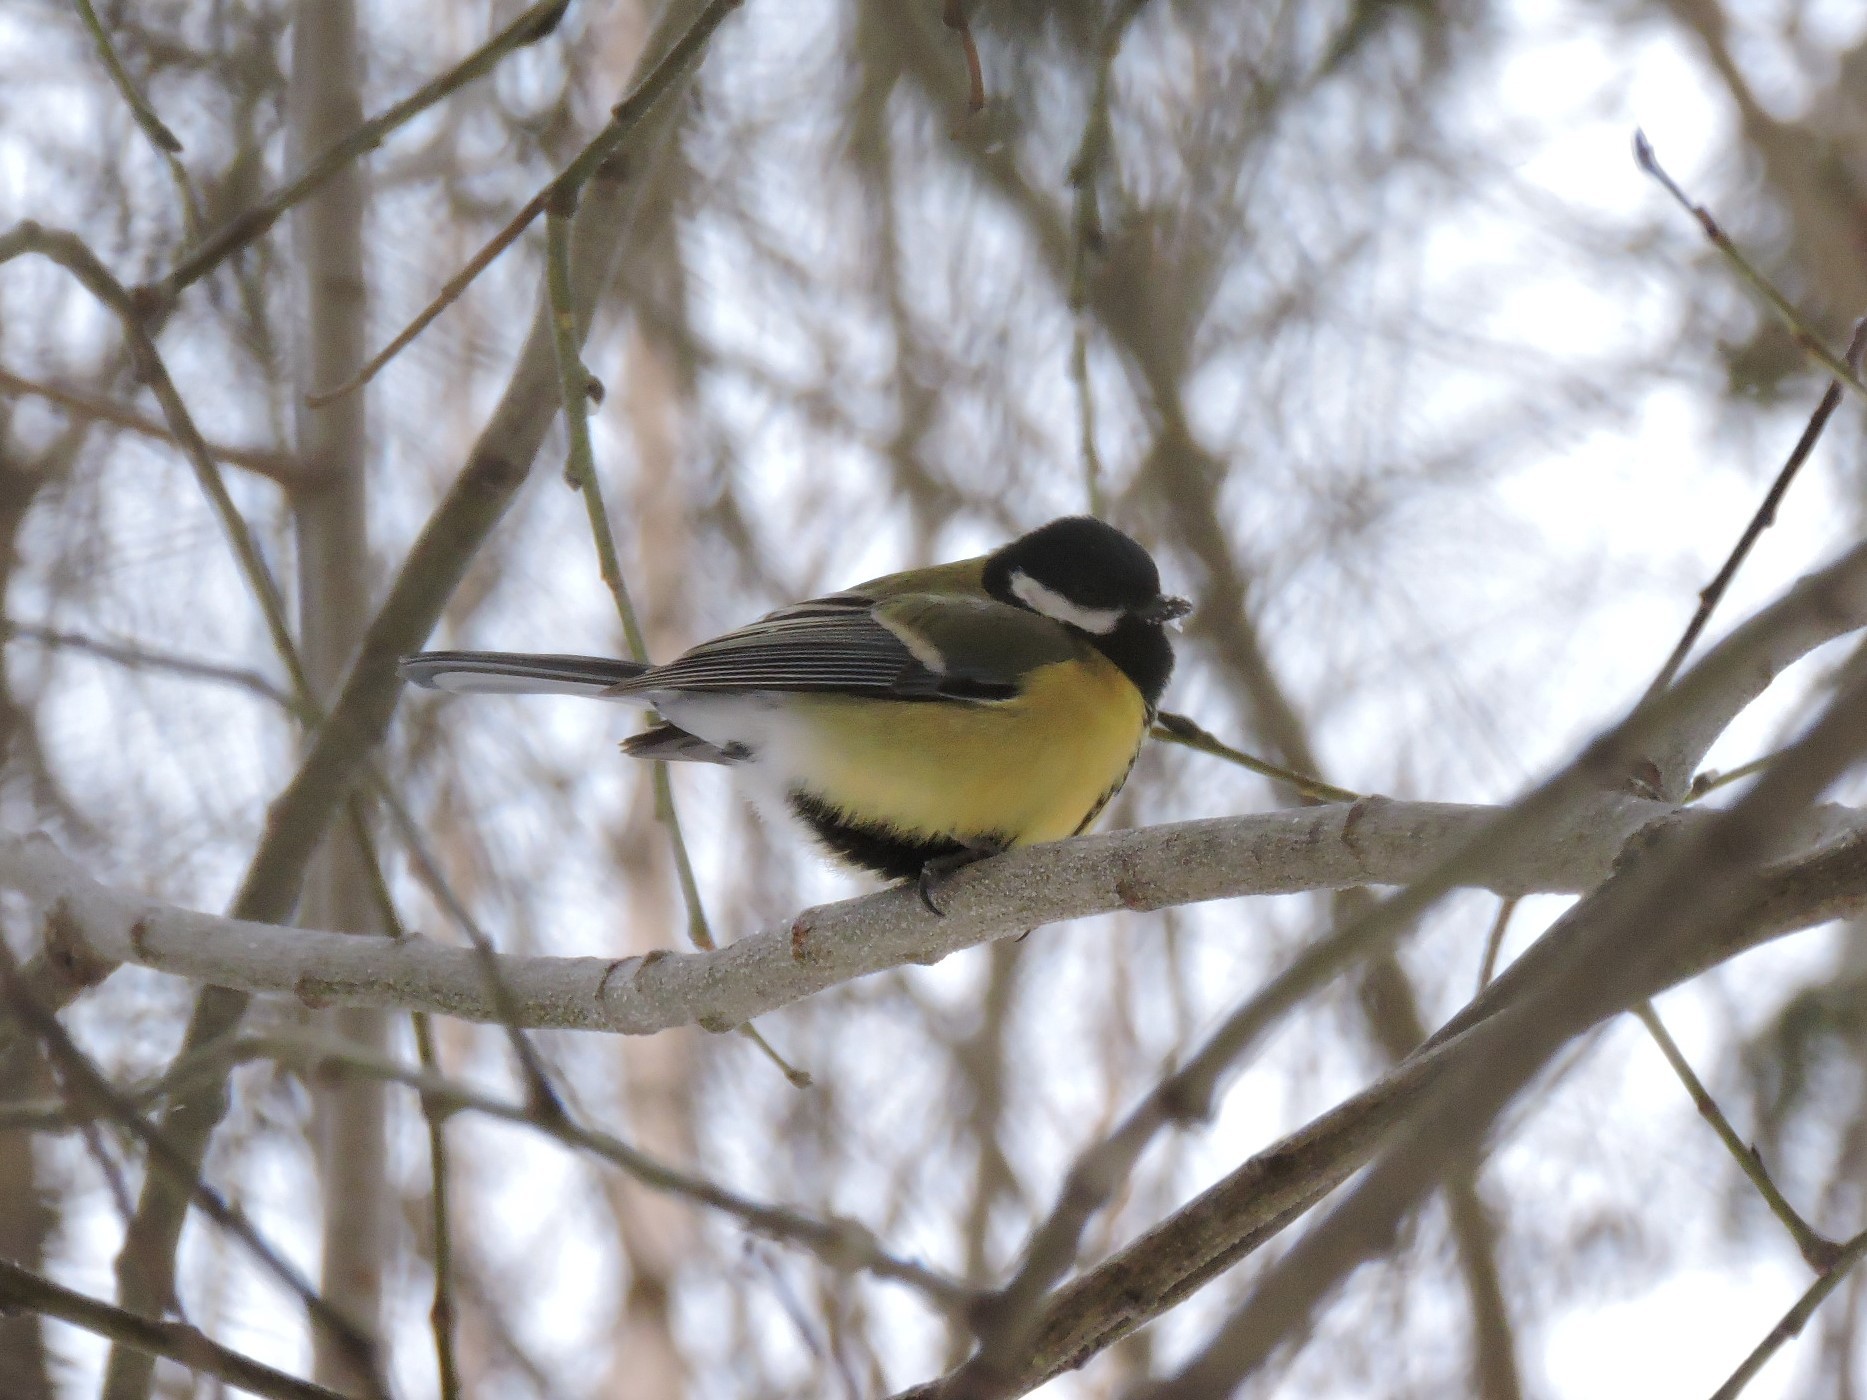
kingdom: Animalia
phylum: Chordata
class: Aves
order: Passeriformes
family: Paridae
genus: Parus
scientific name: Parus major
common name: Great tit
